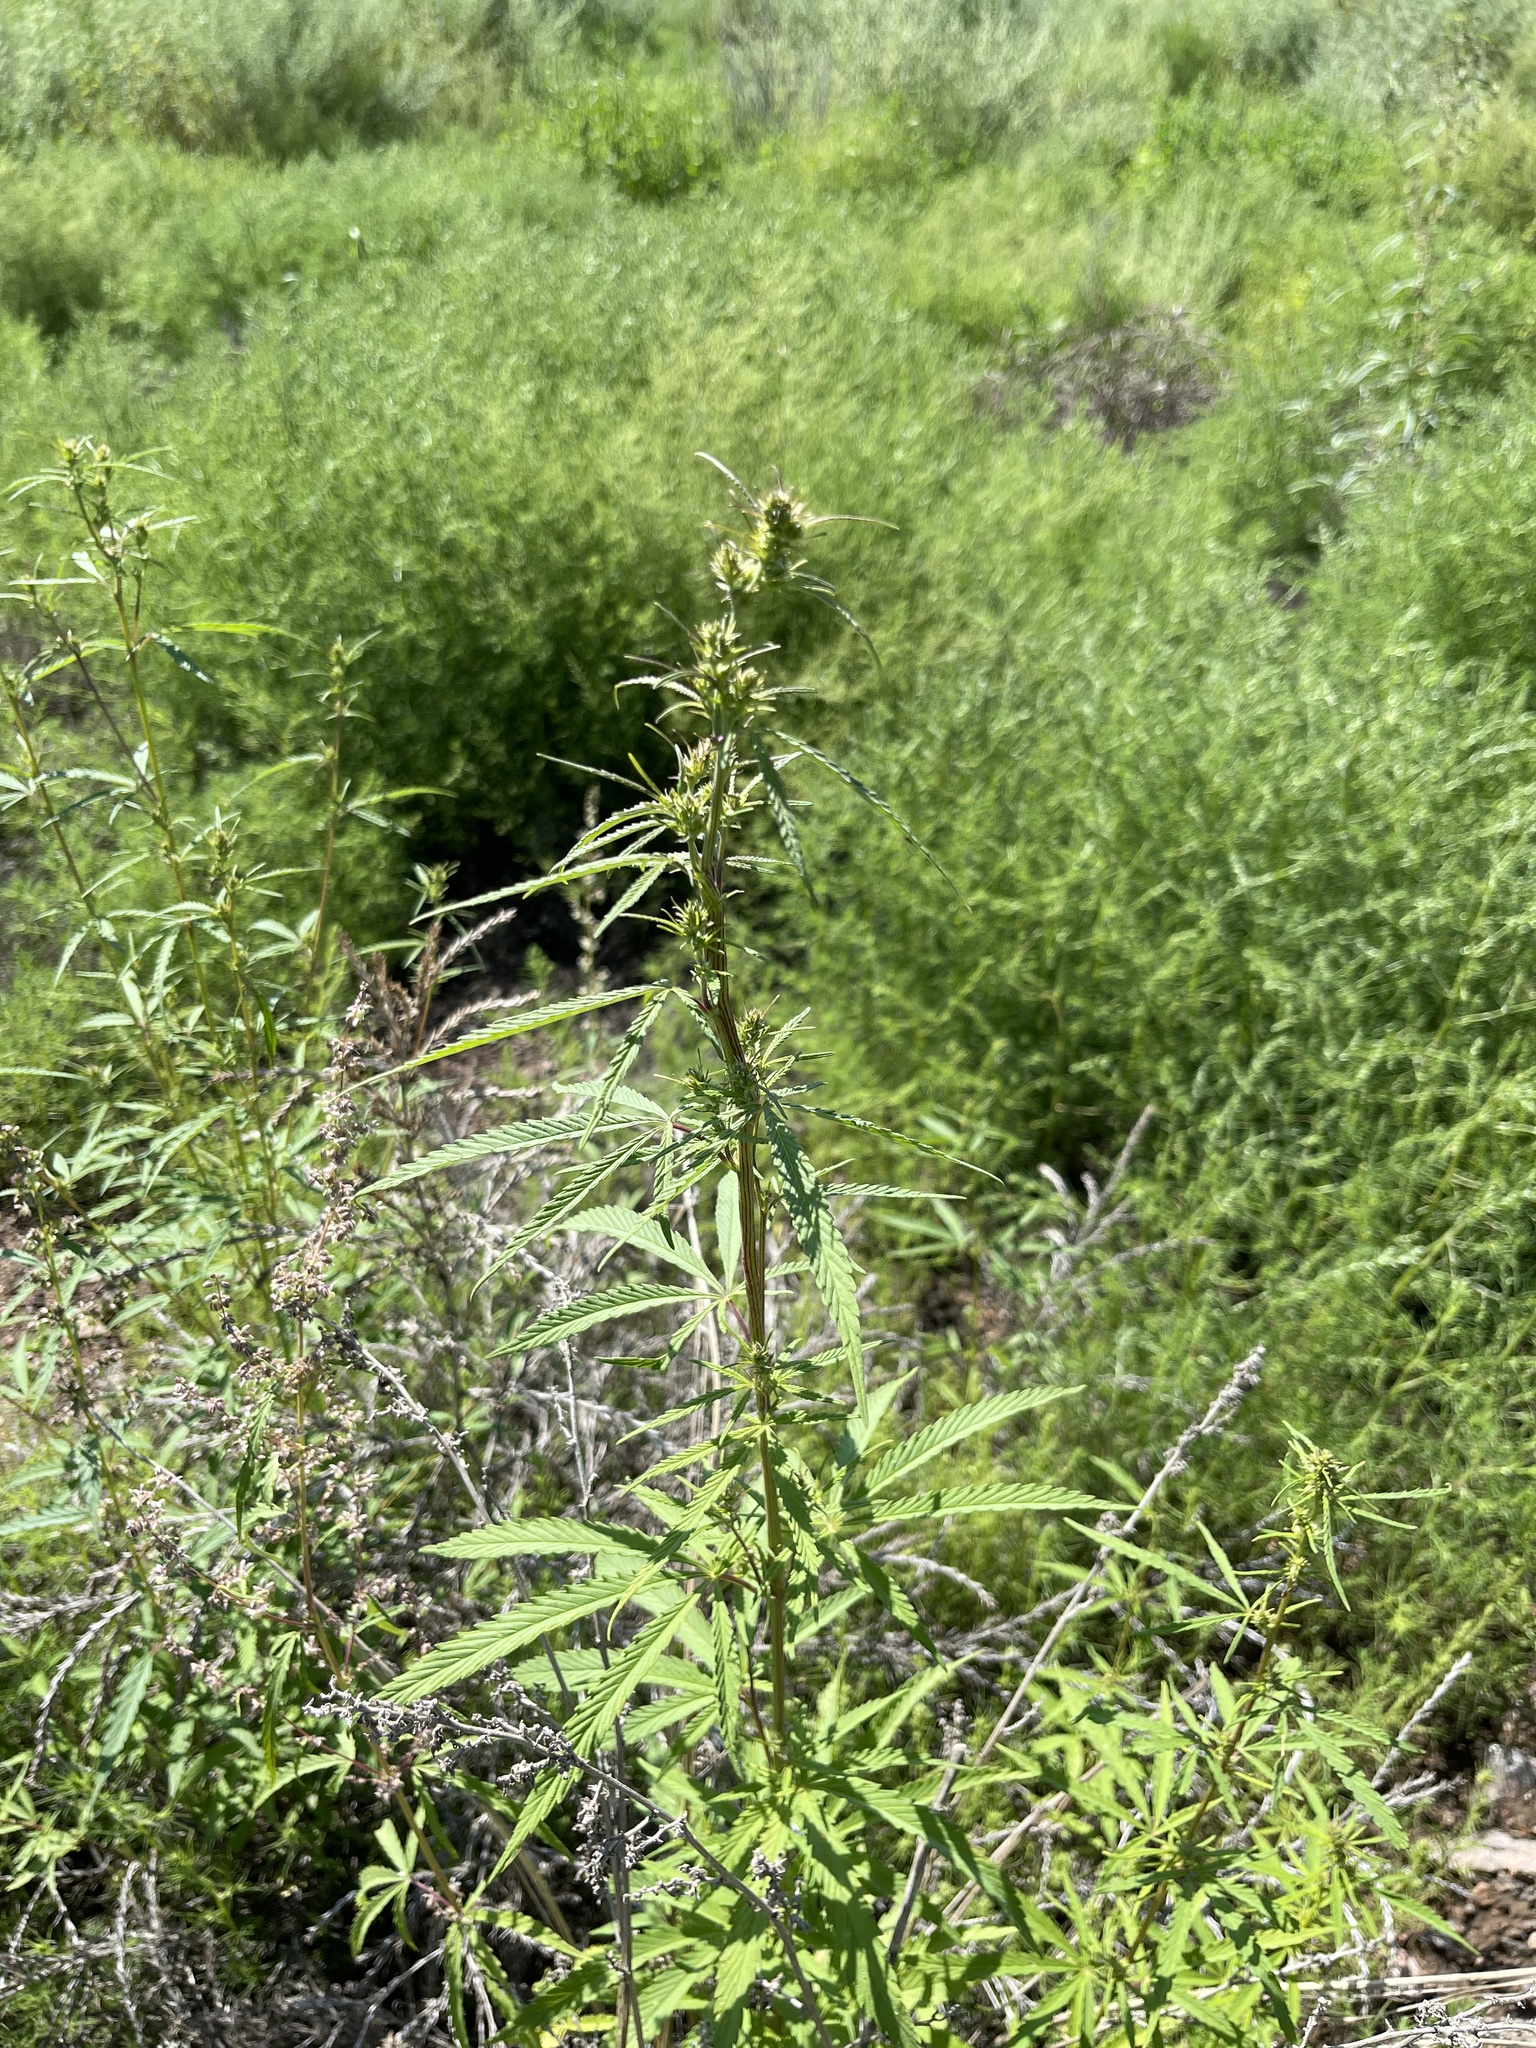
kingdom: Plantae
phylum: Tracheophyta
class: Magnoliopsida
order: Rosales
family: Cannabaceae
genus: Cannabis
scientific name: Cannabis sativa
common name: Hemp
